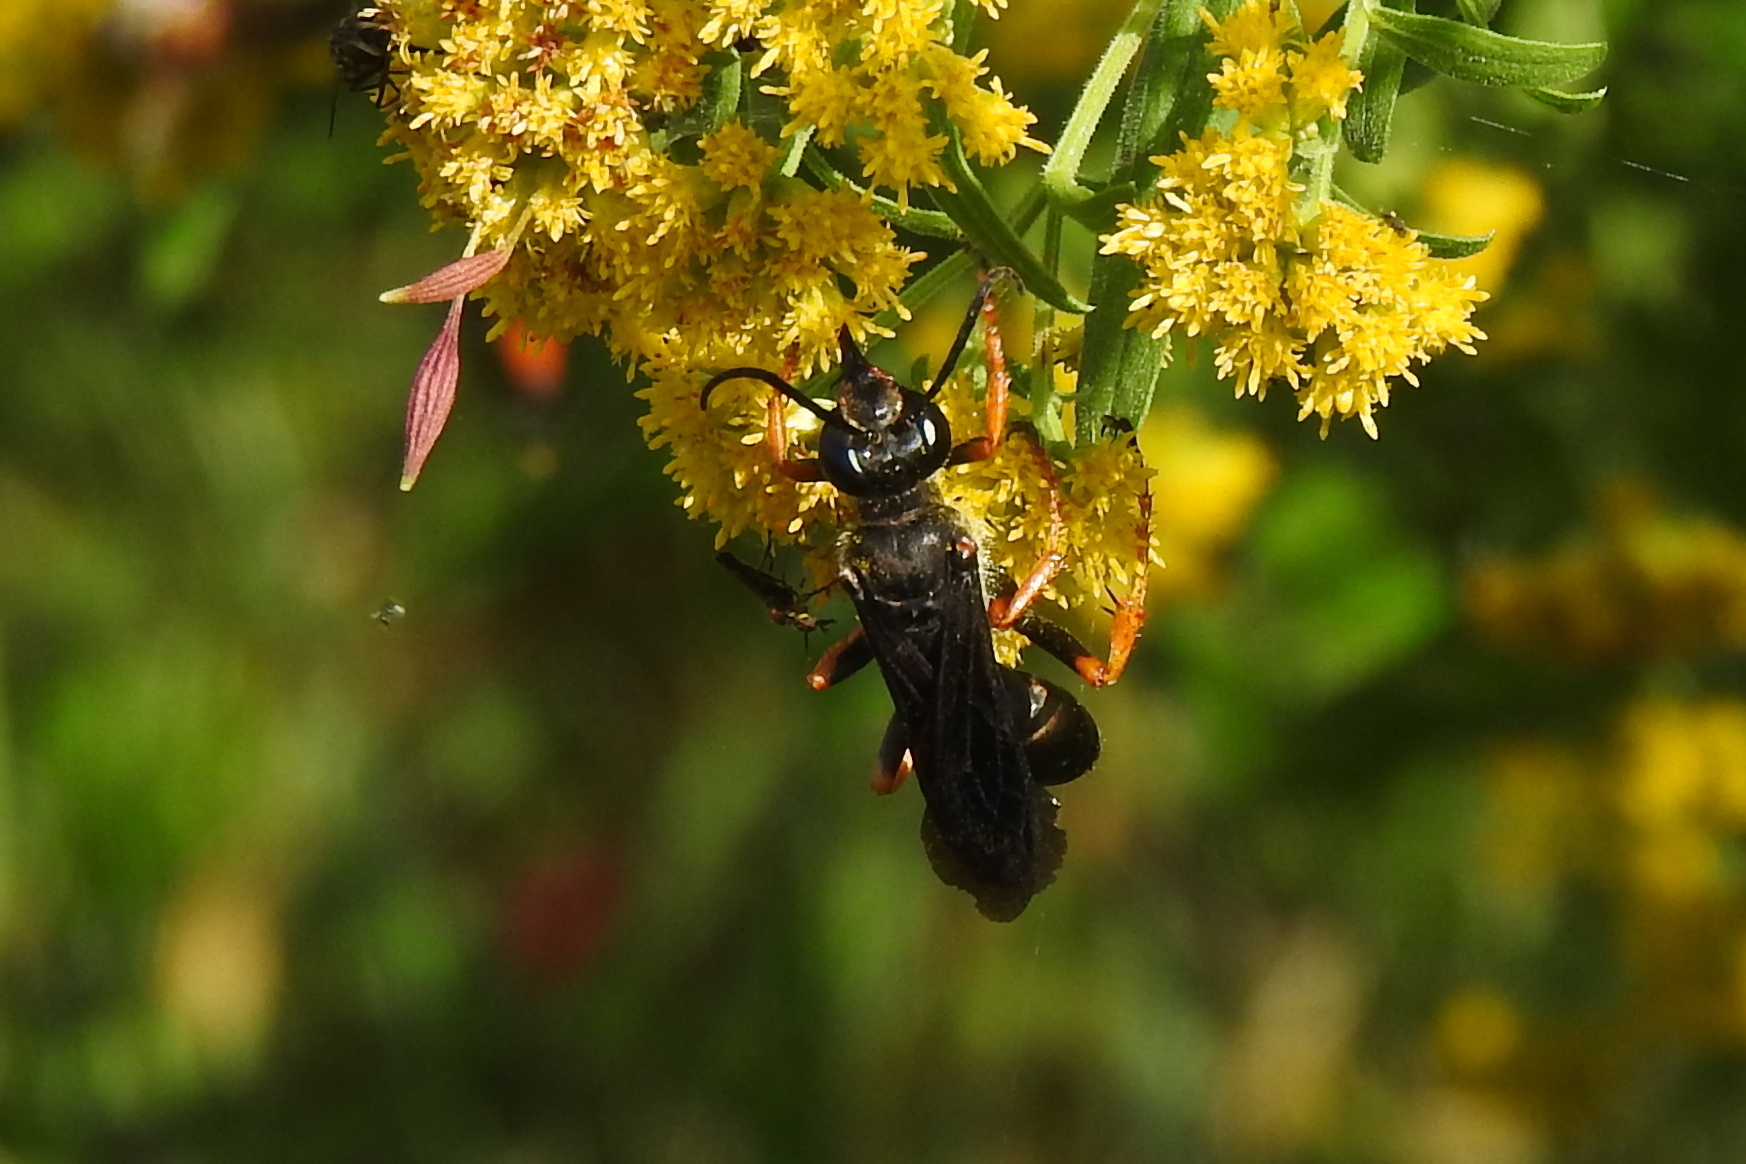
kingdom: Animalia
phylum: Arthropoda
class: Insecta
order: Hymenoptera
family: Sphecidae
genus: Sphex
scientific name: Sphex nudus
